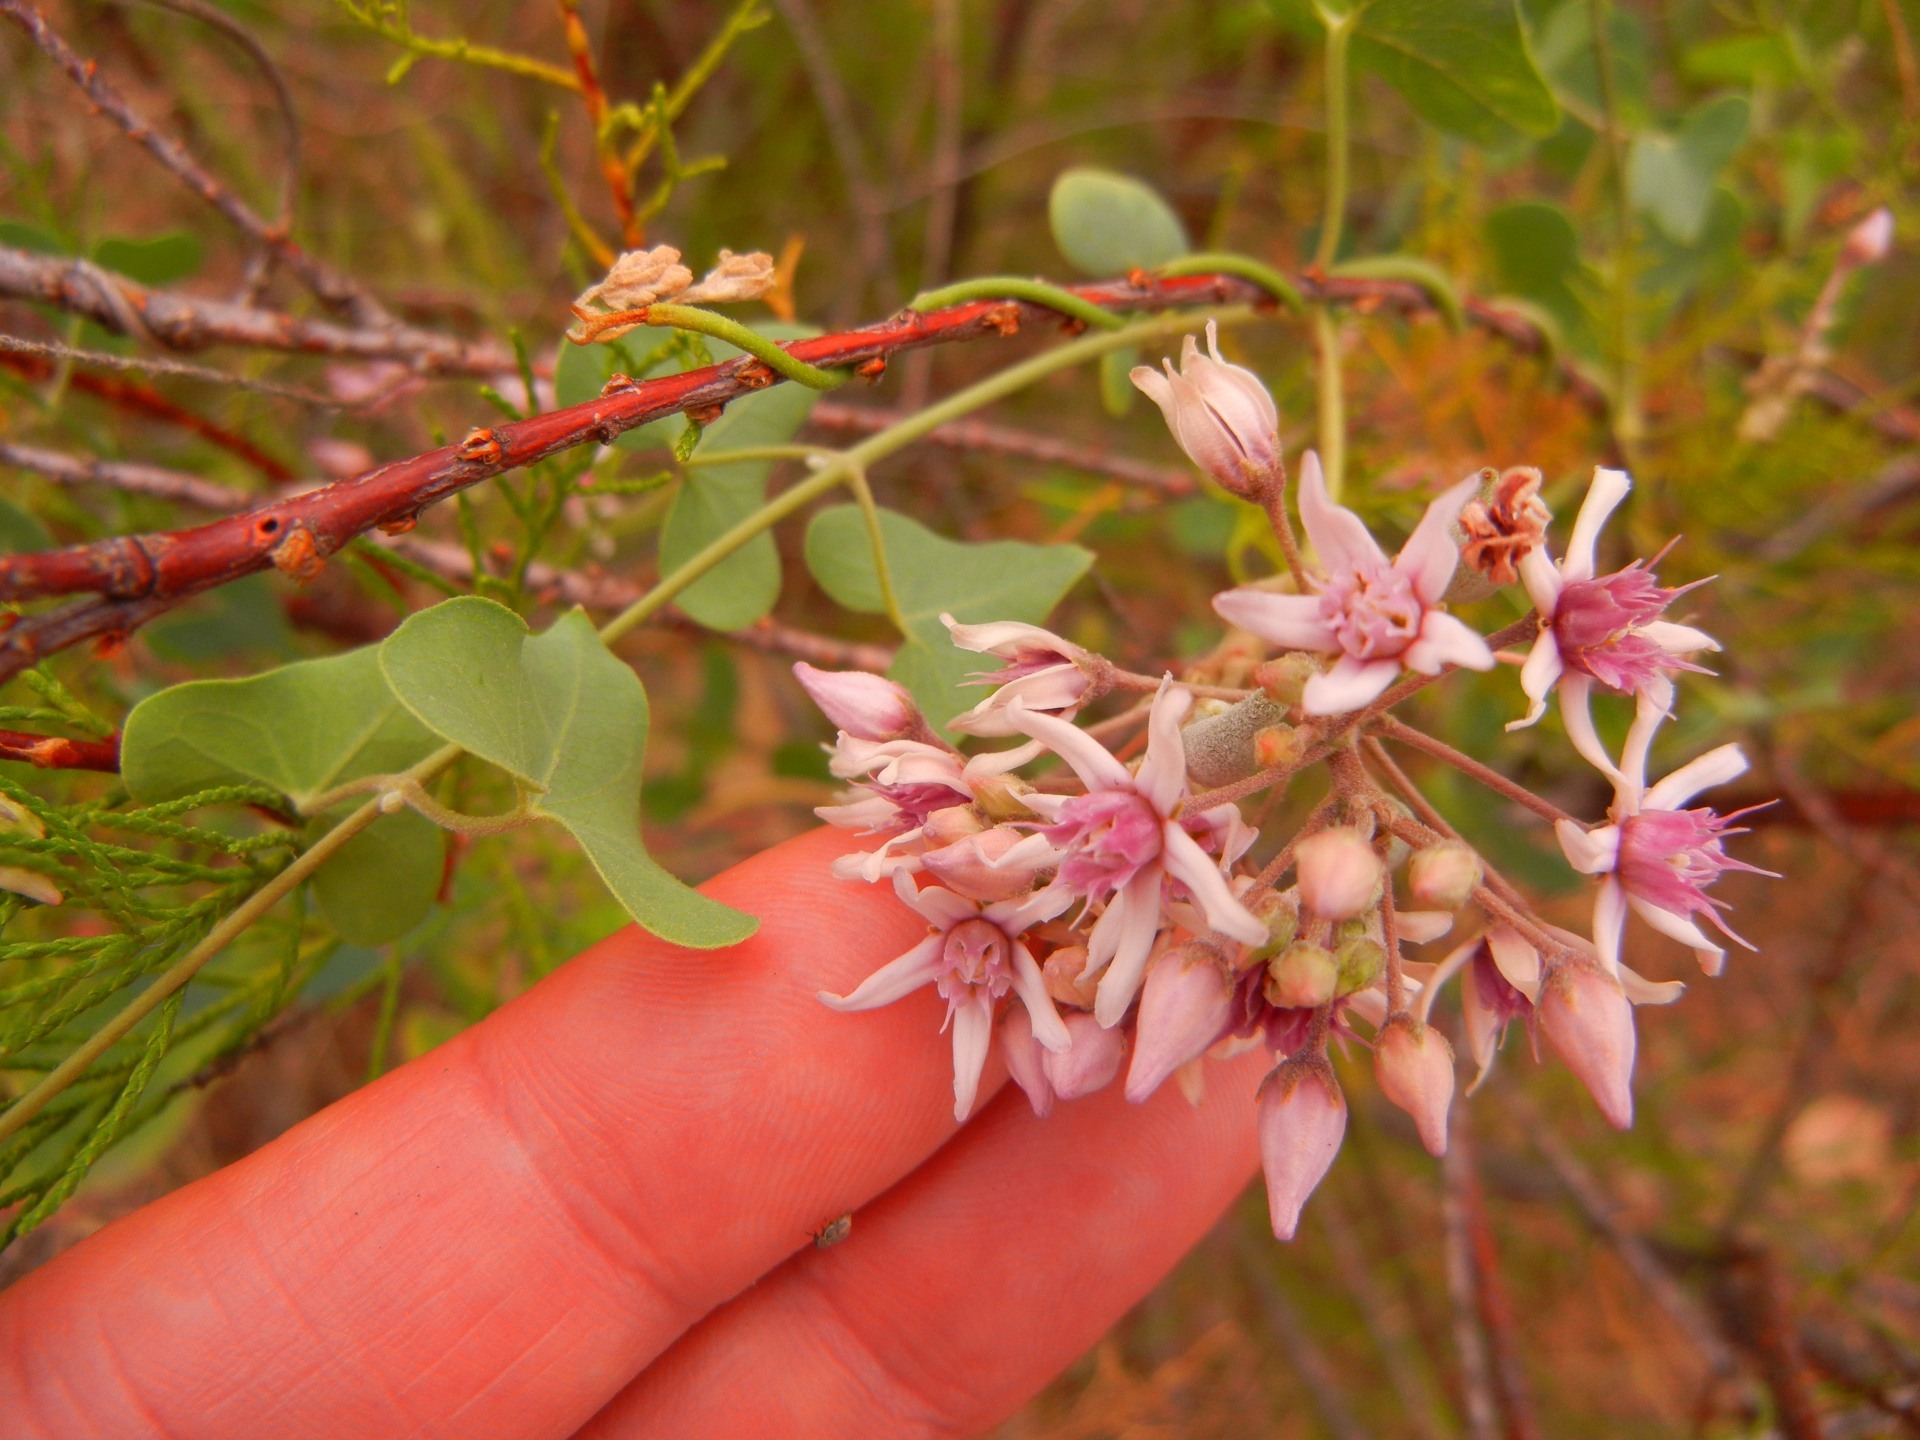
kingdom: Plantae
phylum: Tracheophyta
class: Magnoliopsida
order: Gentianales
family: Apocynaceae
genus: Cynanchum
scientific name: Cynanchum acutum
